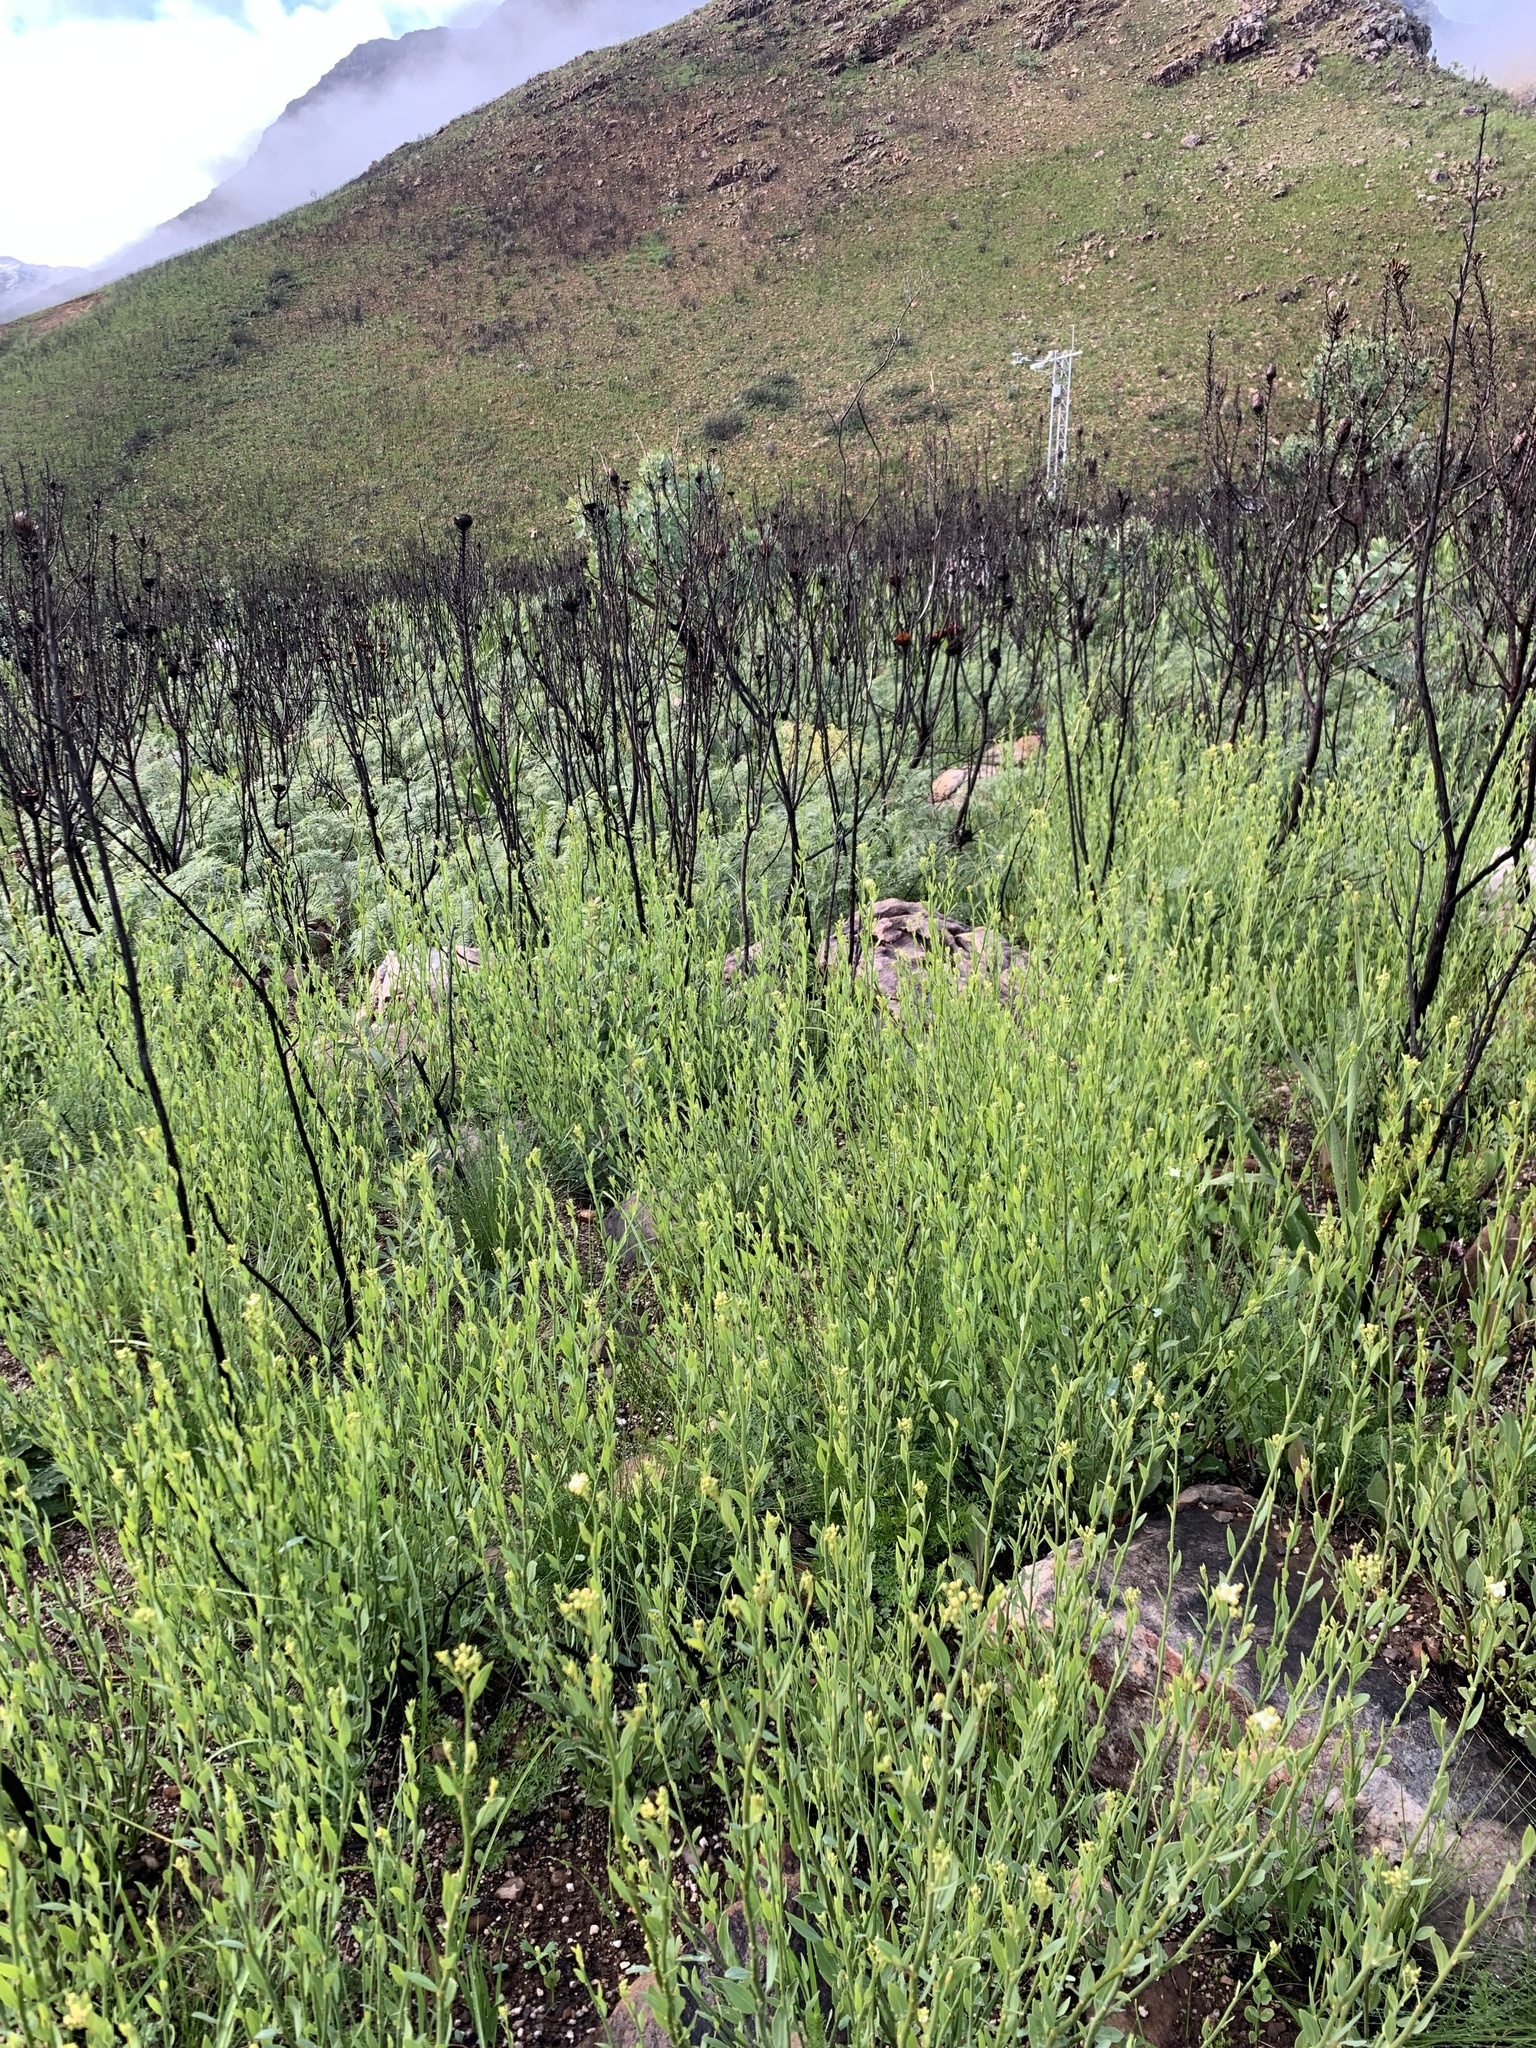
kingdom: Plantae
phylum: Tracheophyta
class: Magnoliopsida
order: Solanales
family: Montiniaceae
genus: Montinia
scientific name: Montinia caryophyllacea
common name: Wild clove-bush
